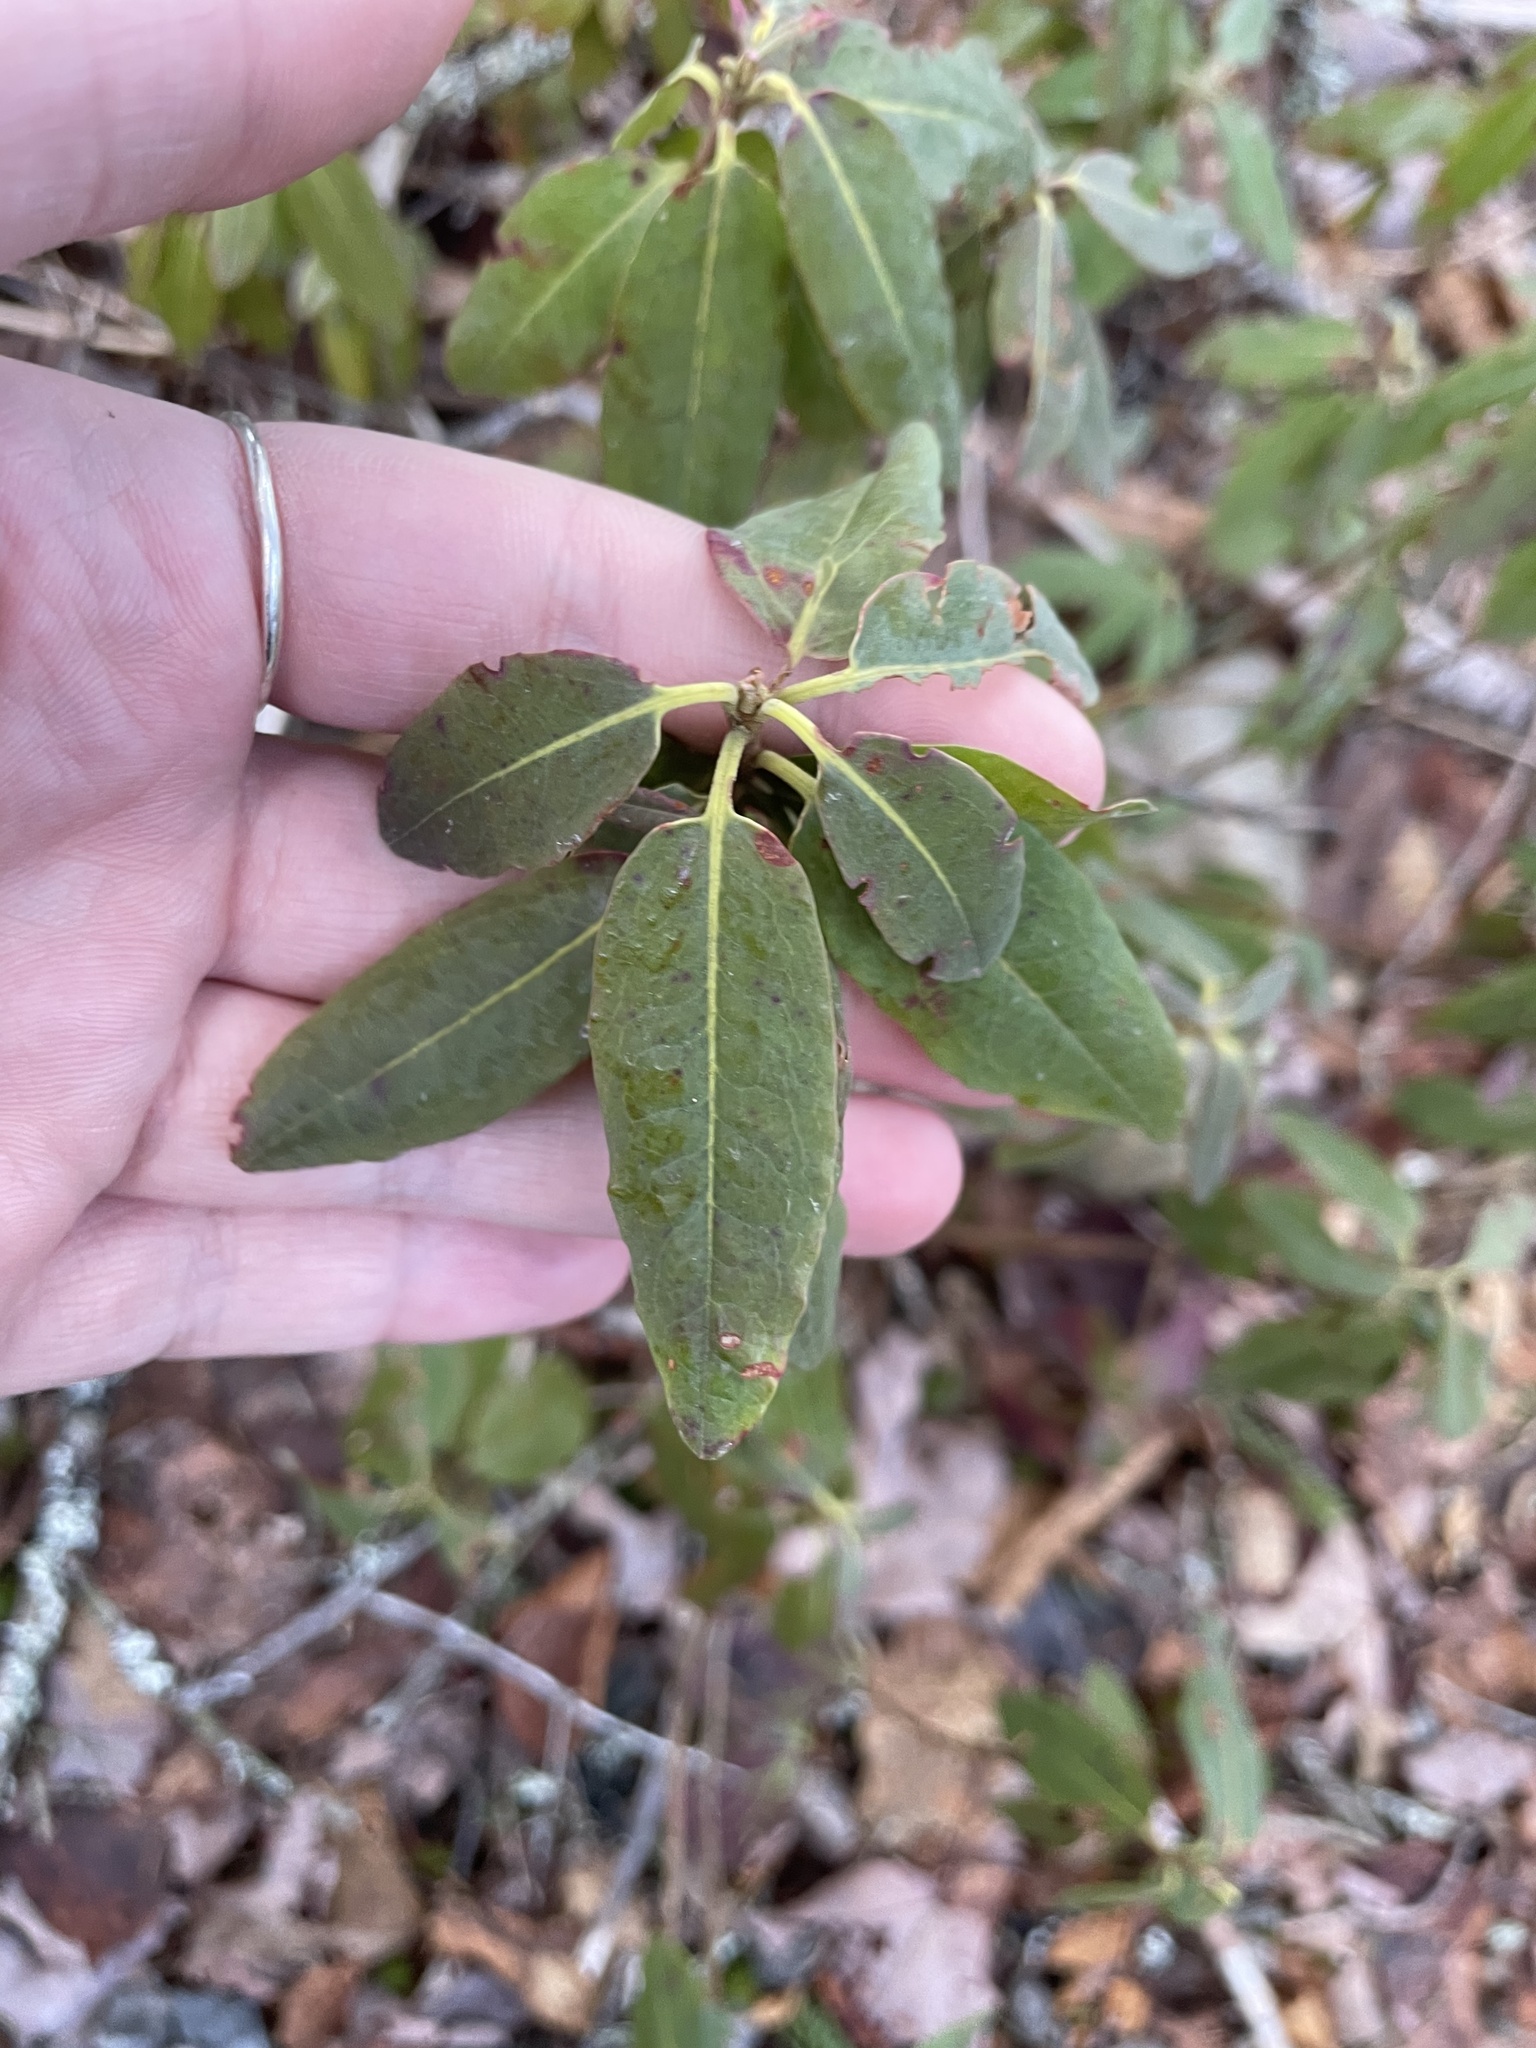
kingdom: Plantae
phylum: Tracheophyta
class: Magnoliopsida
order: Ericales
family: Ericaceae
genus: Kalmia
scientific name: Kalmia angustifolia
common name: Sheep-laurel
